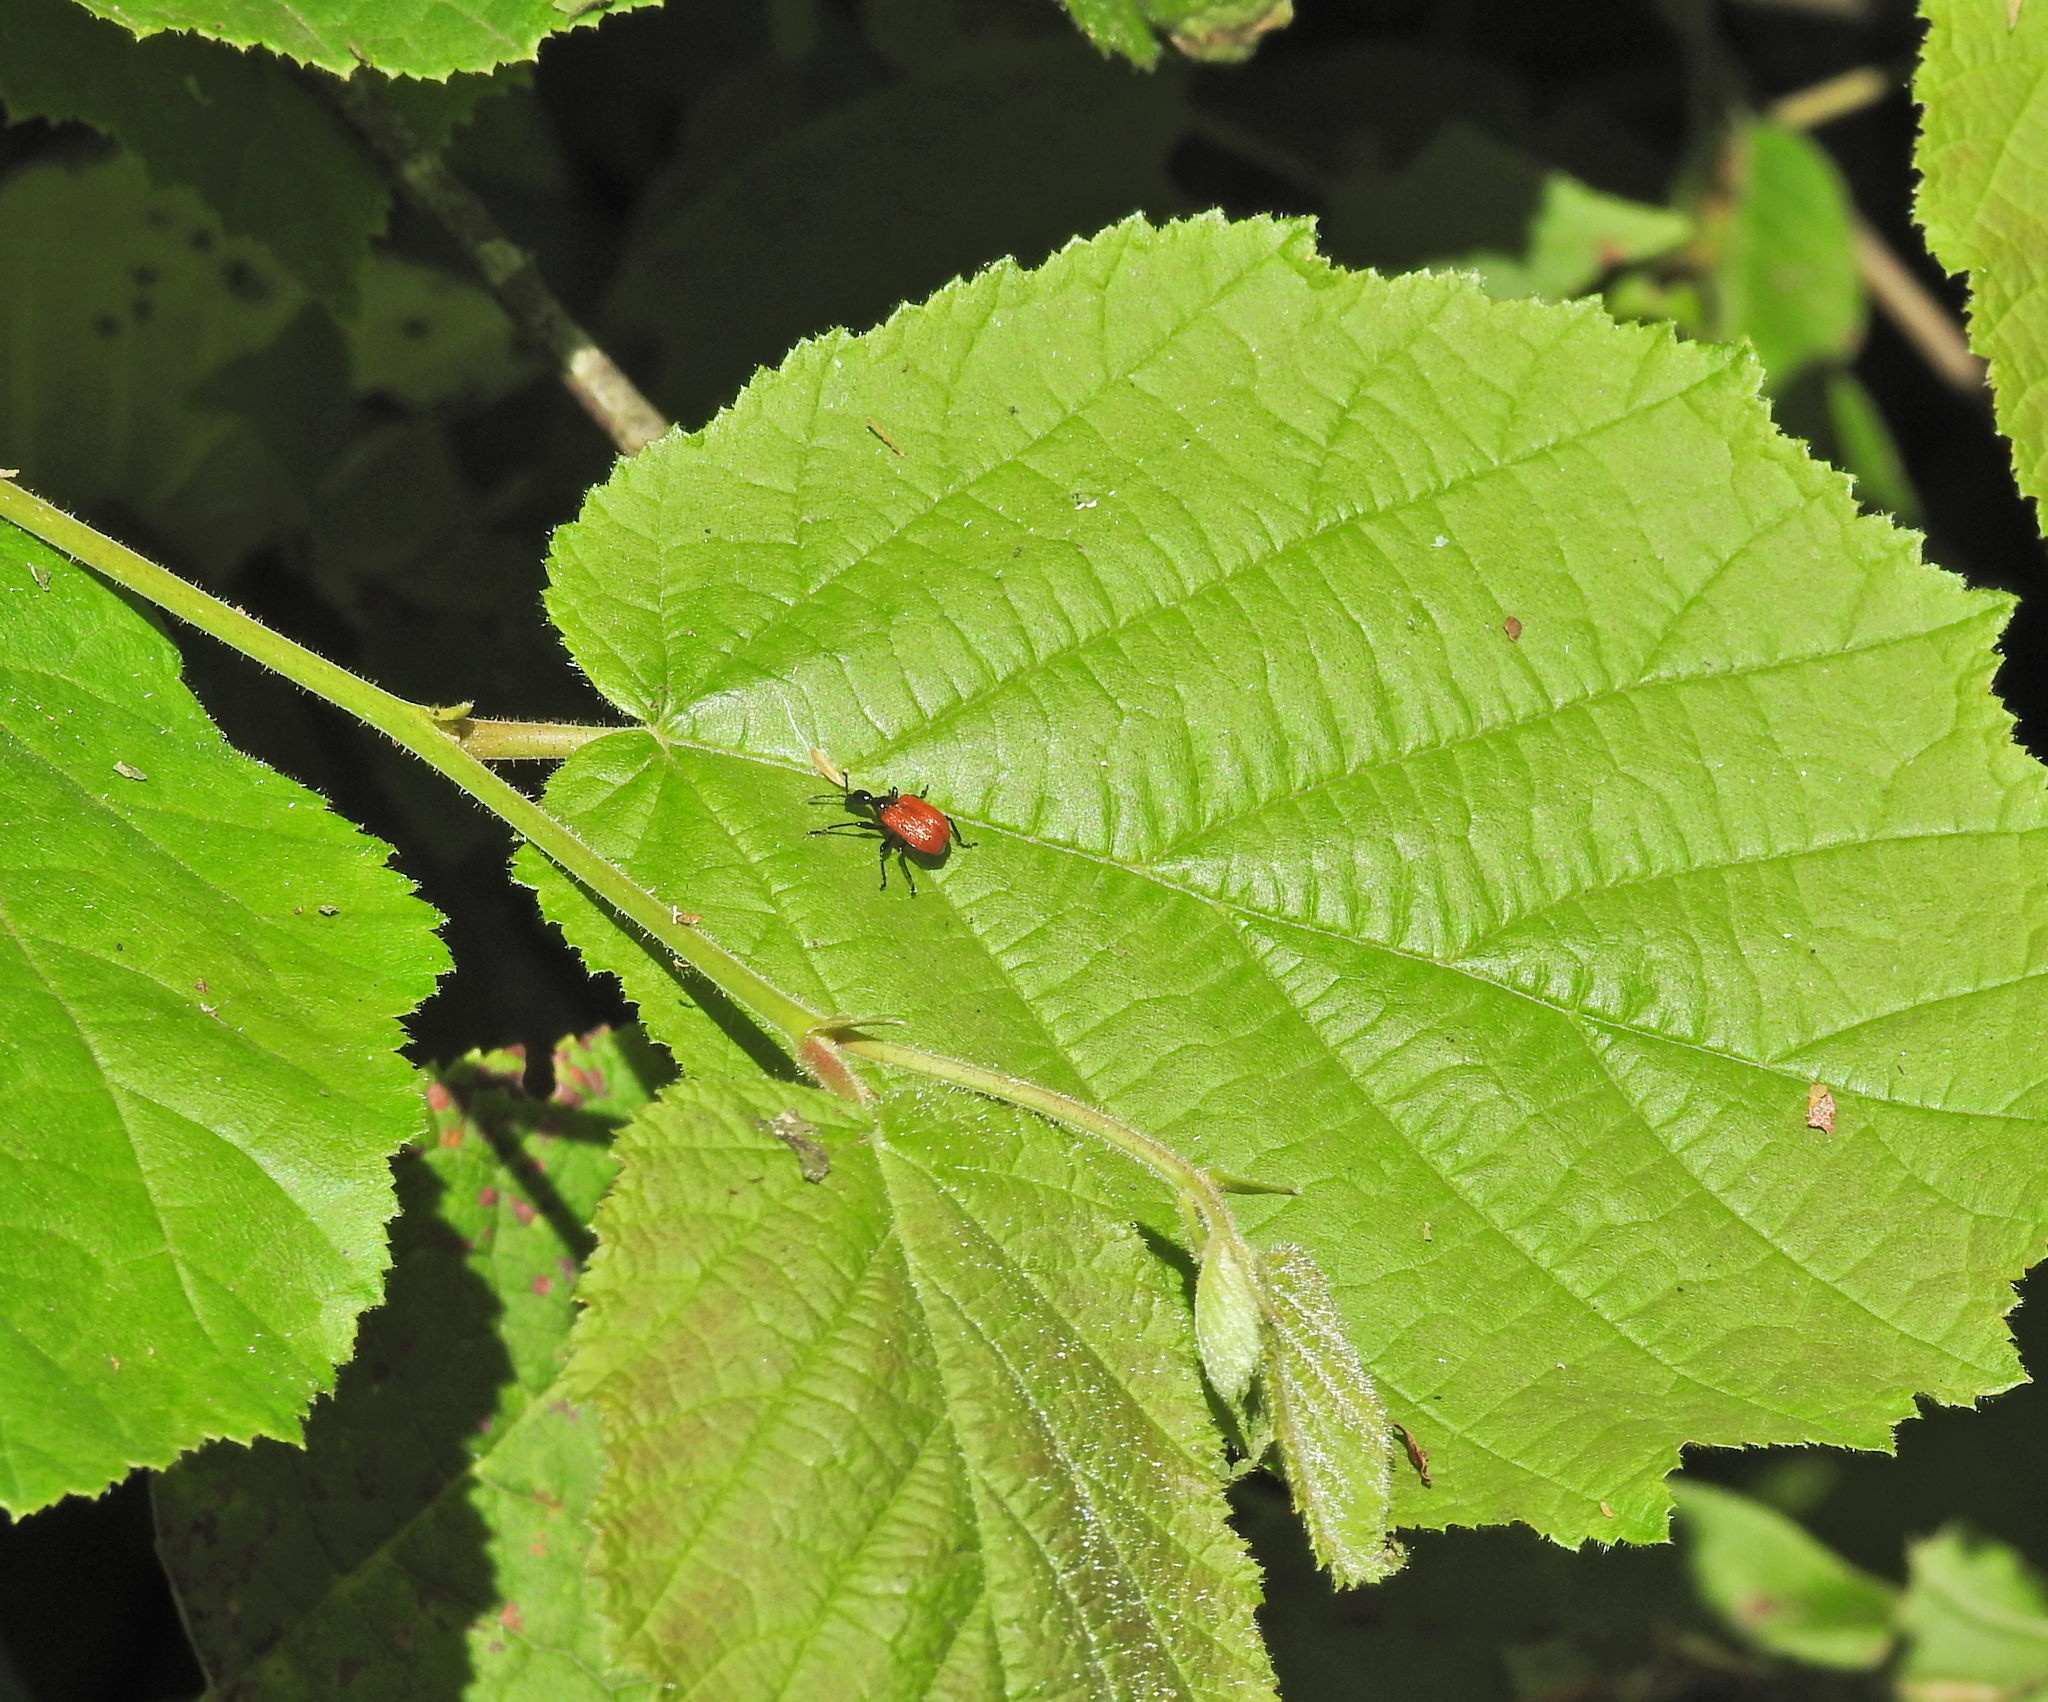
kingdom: Animalia
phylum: Arthropoda
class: Insecta
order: Coleoptera
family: Attelabidae
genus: Apoderus
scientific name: Apoderus coryli
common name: Hazel leaf roller
